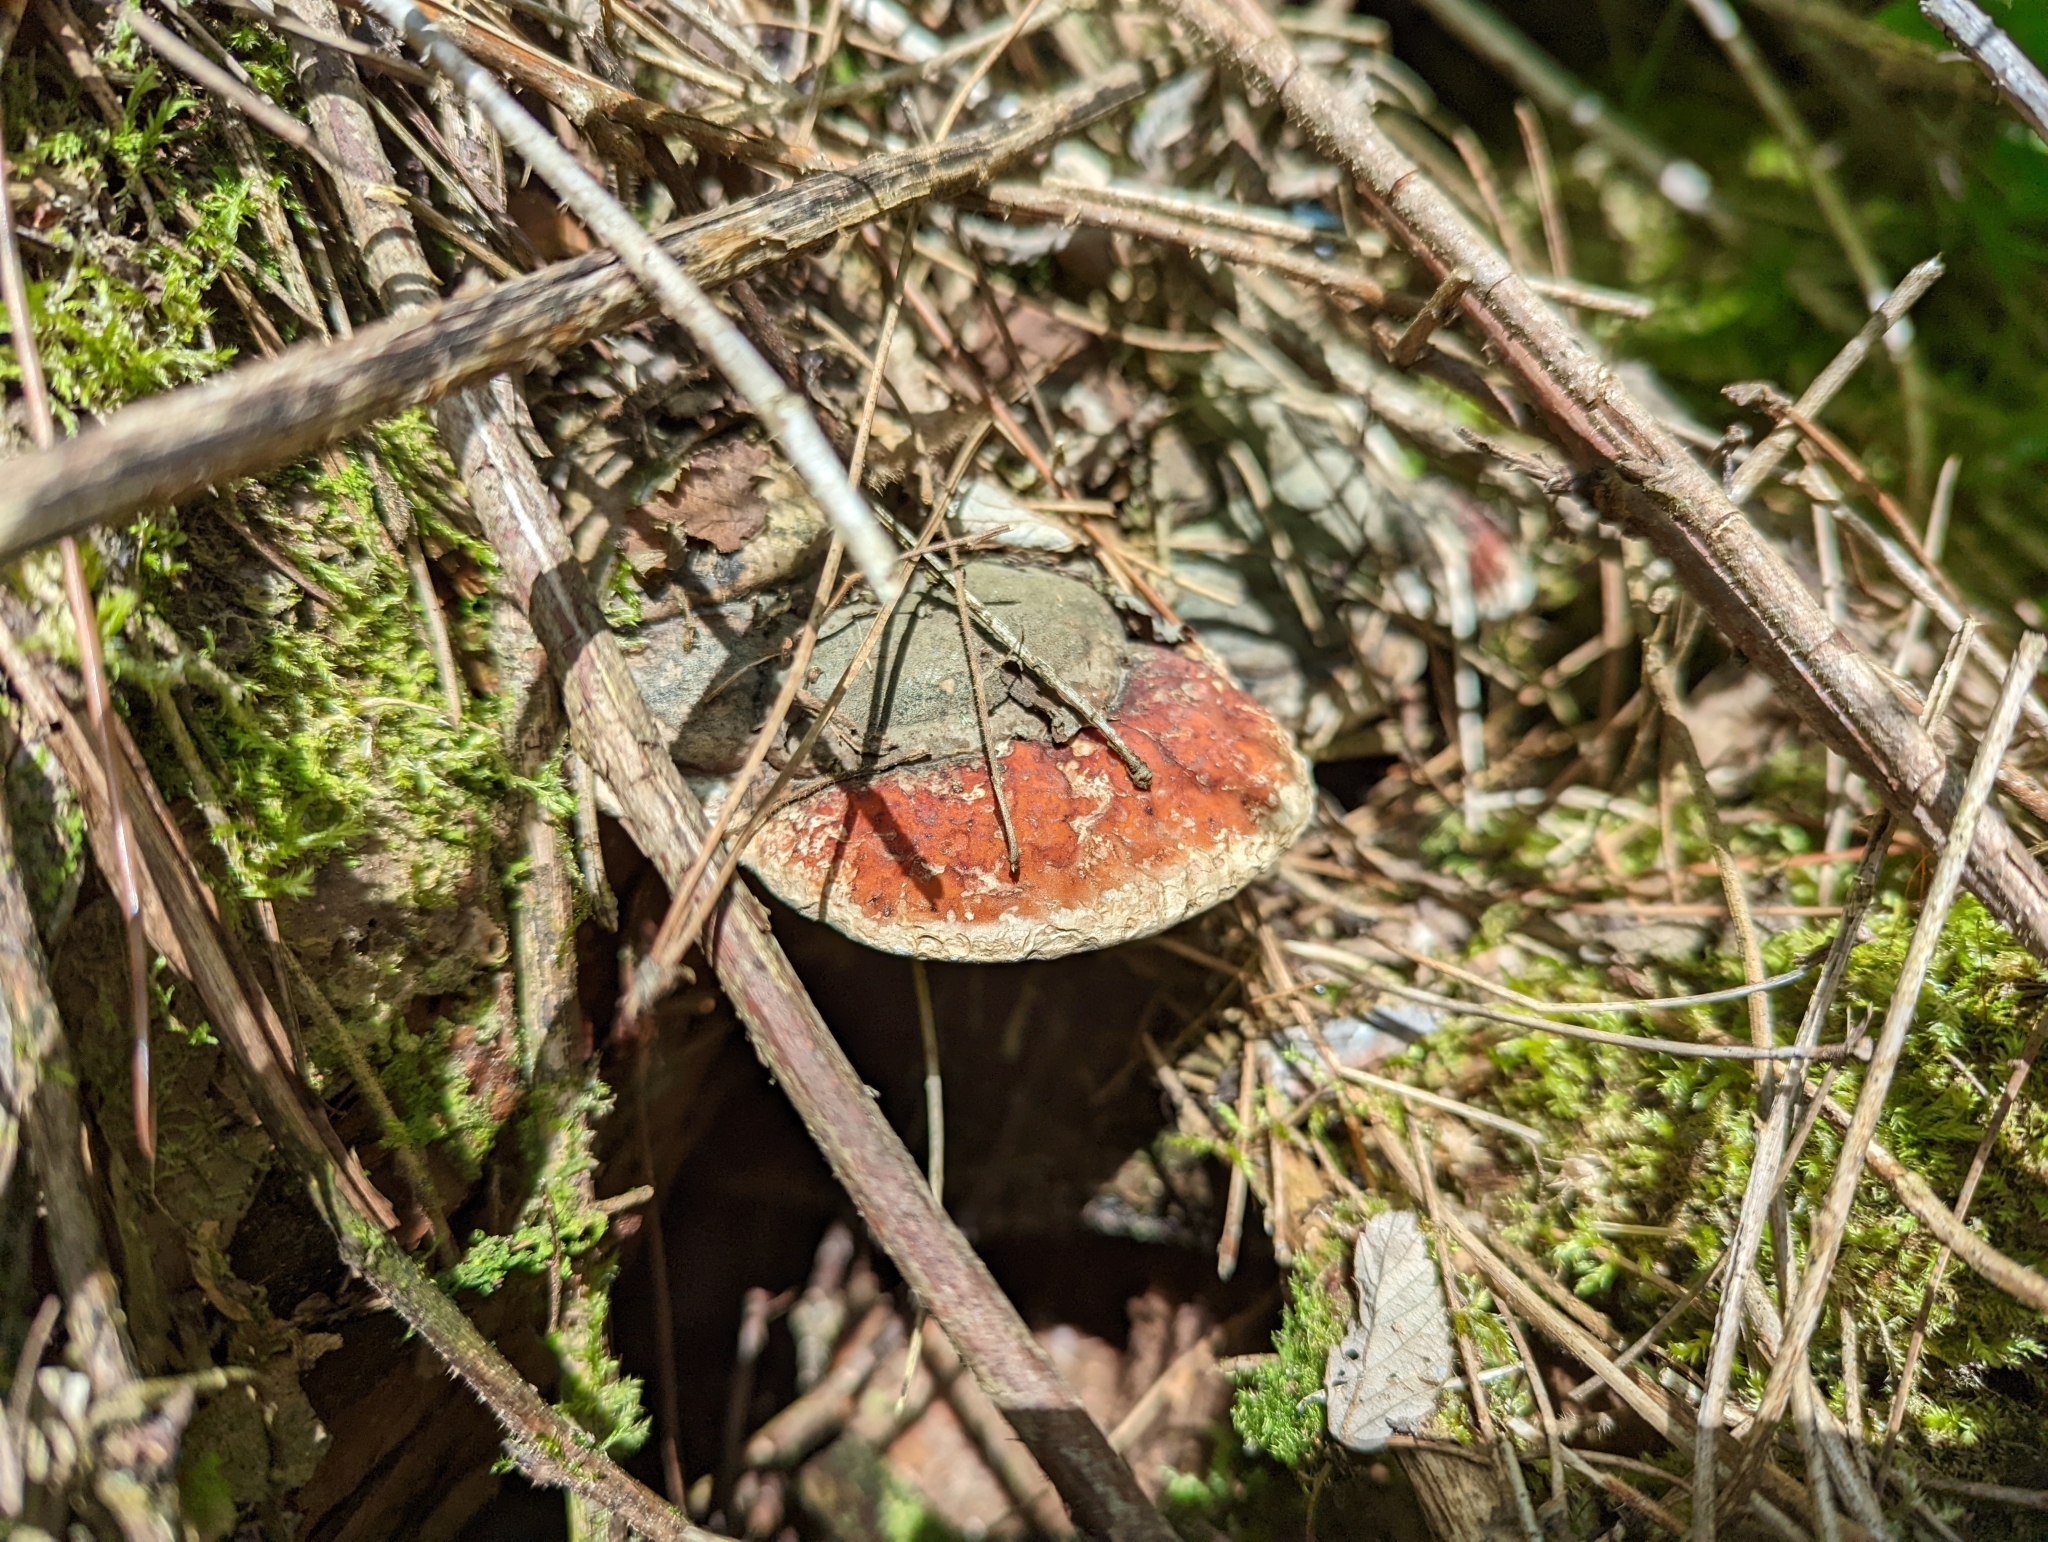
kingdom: Fungi
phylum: Basidiomycota
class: Agaricomycetes
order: Polyporales
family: Fomitopsidaceae
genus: Fomitopsis
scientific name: Fomitopsis mounceae
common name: Northern red belt
